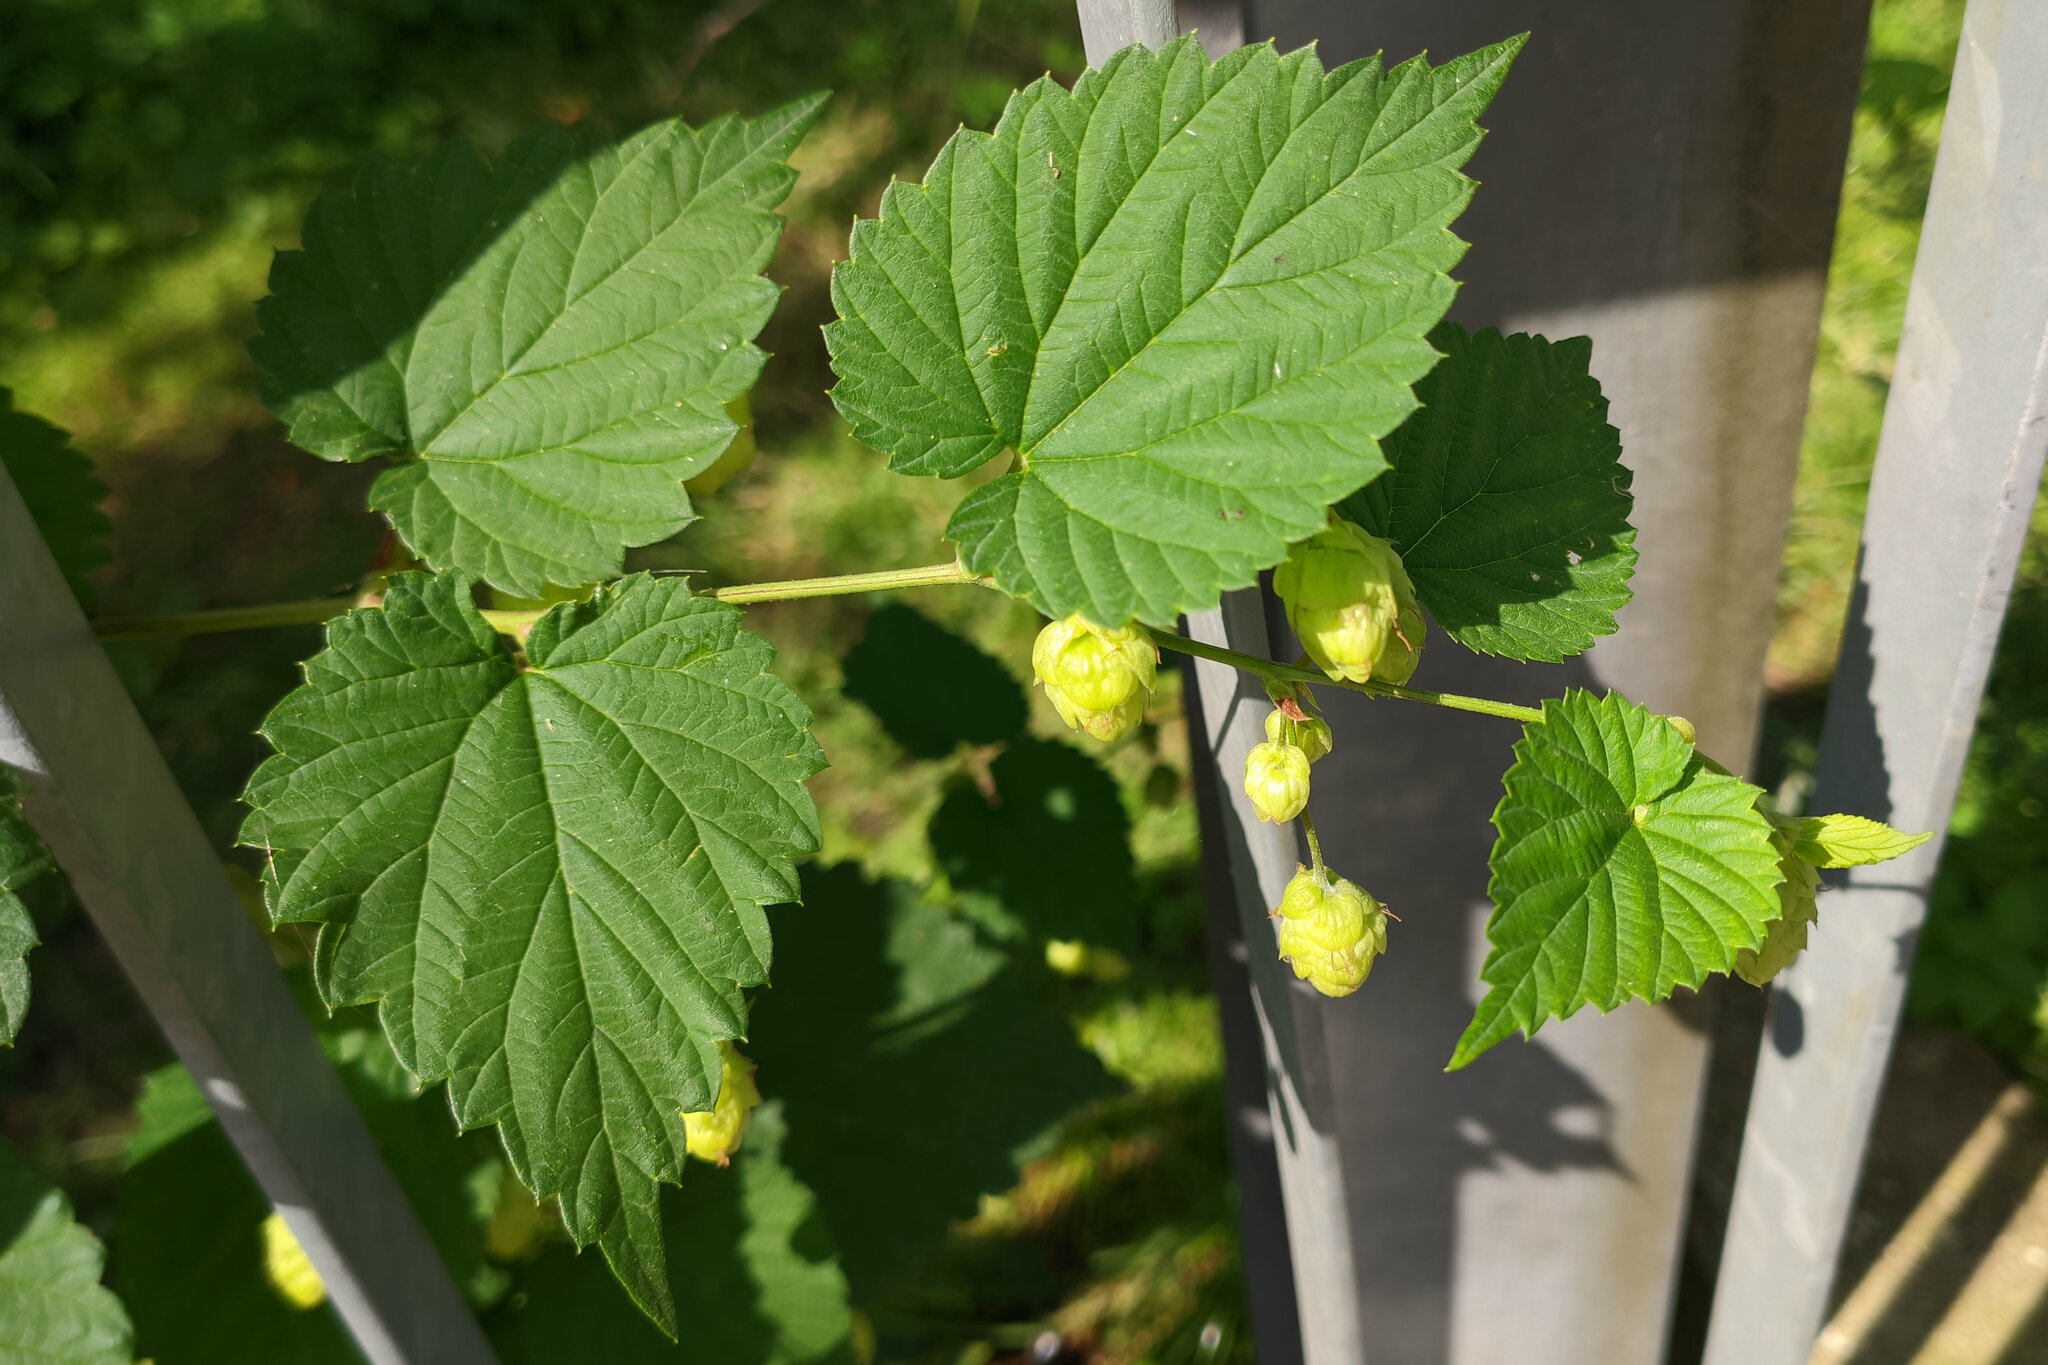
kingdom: Plantae
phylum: Tracheophyta
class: Magnoliopsida
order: Rosales
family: Cannabaceae
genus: Humulus
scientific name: Humulus lupulus
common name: Hop
